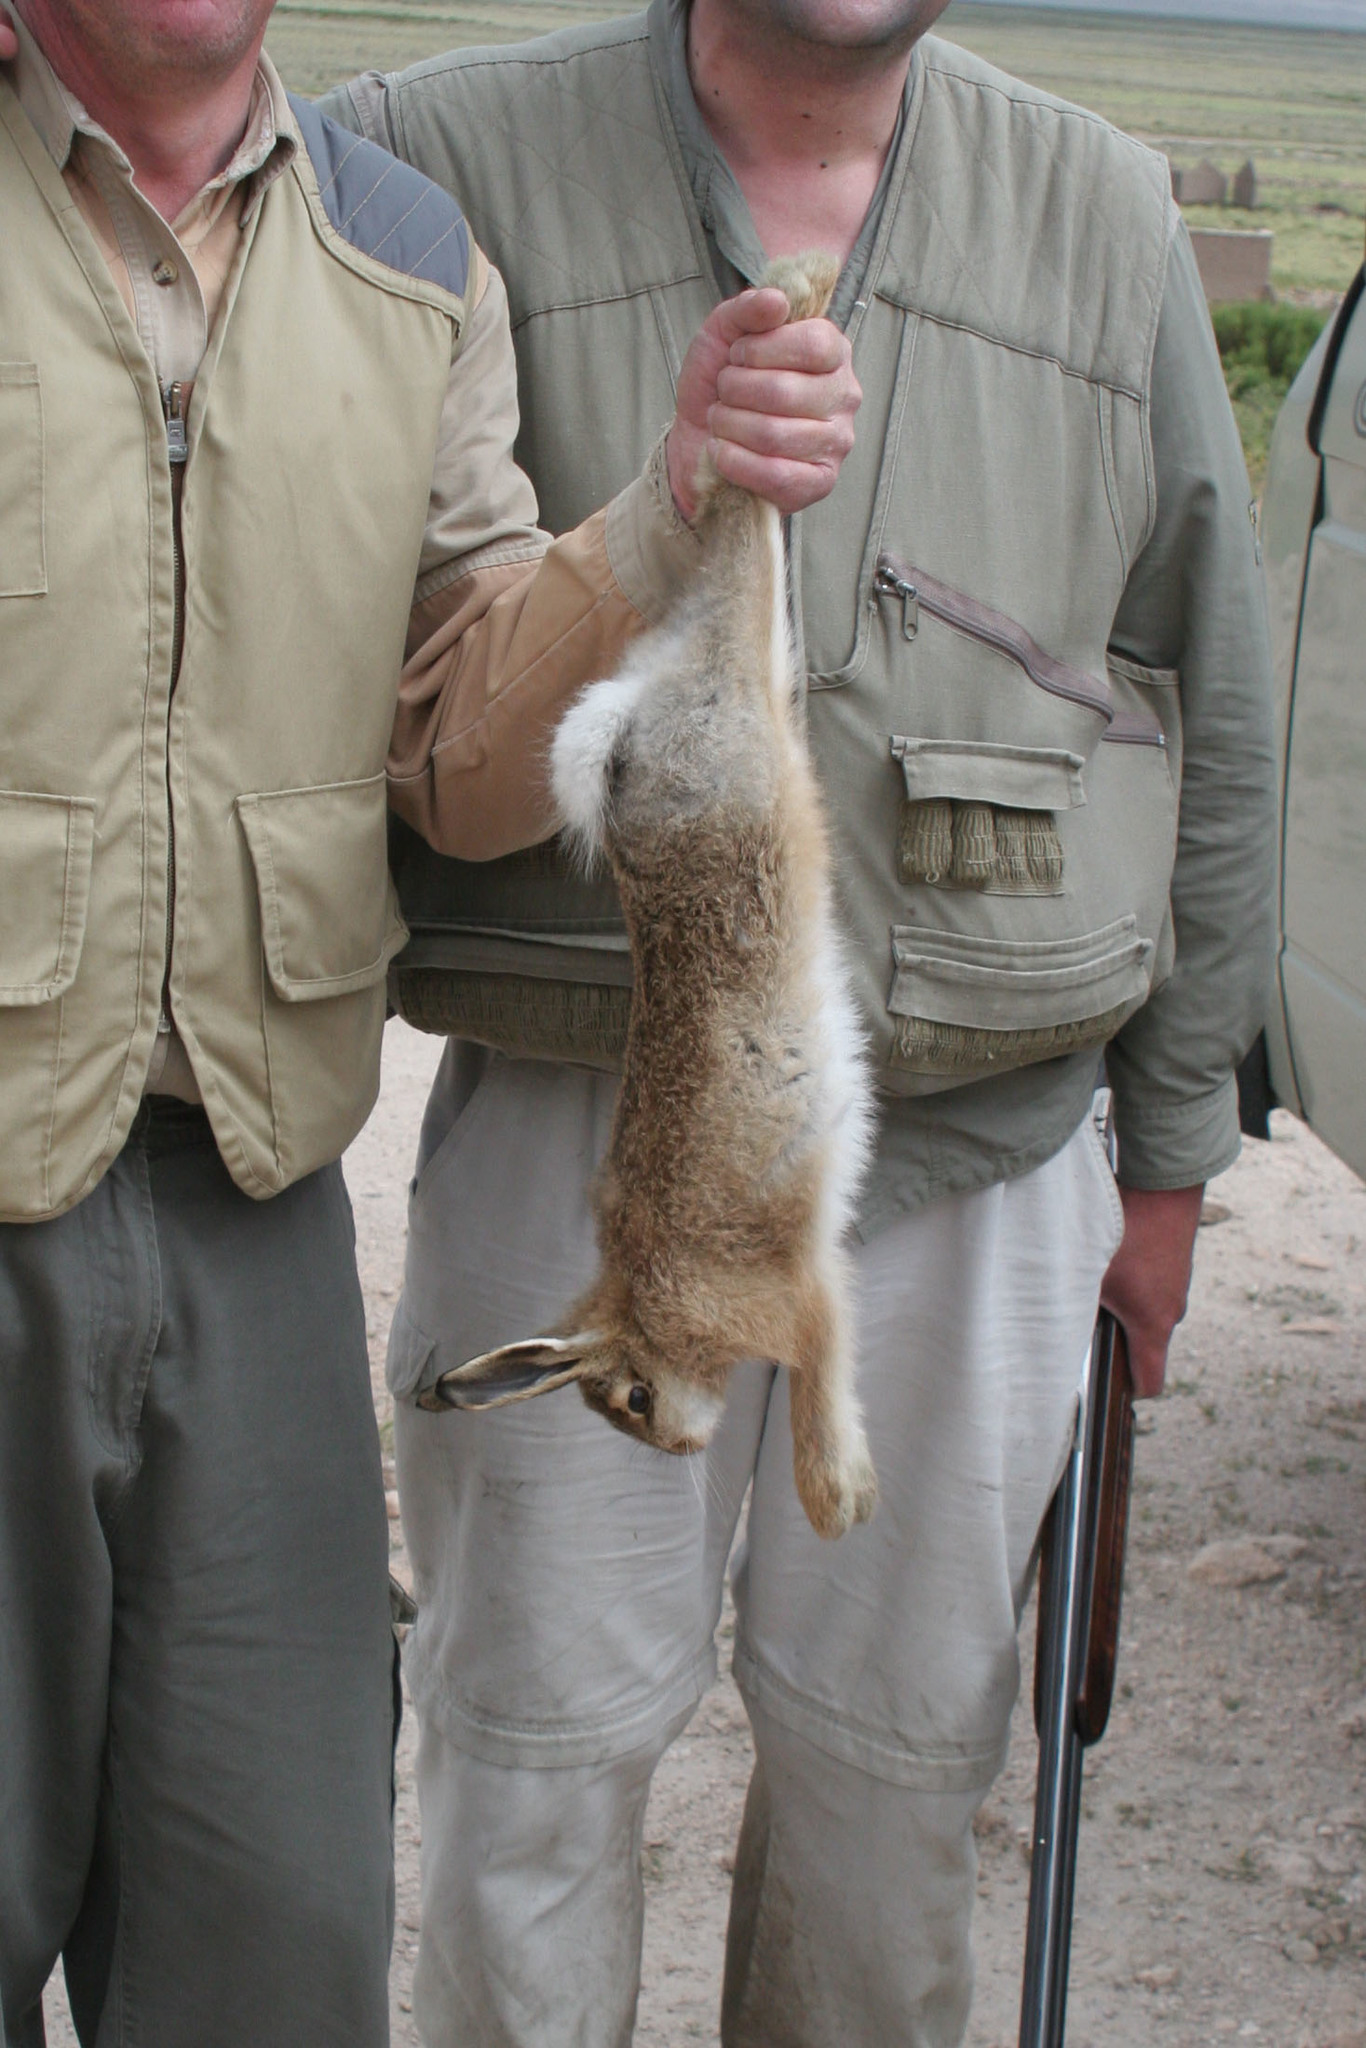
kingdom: Animalia
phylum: Chordata
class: Mammalia
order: Lagomorpha
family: Leporidae
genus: Lepus
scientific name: Lepus europaeus
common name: European hare
